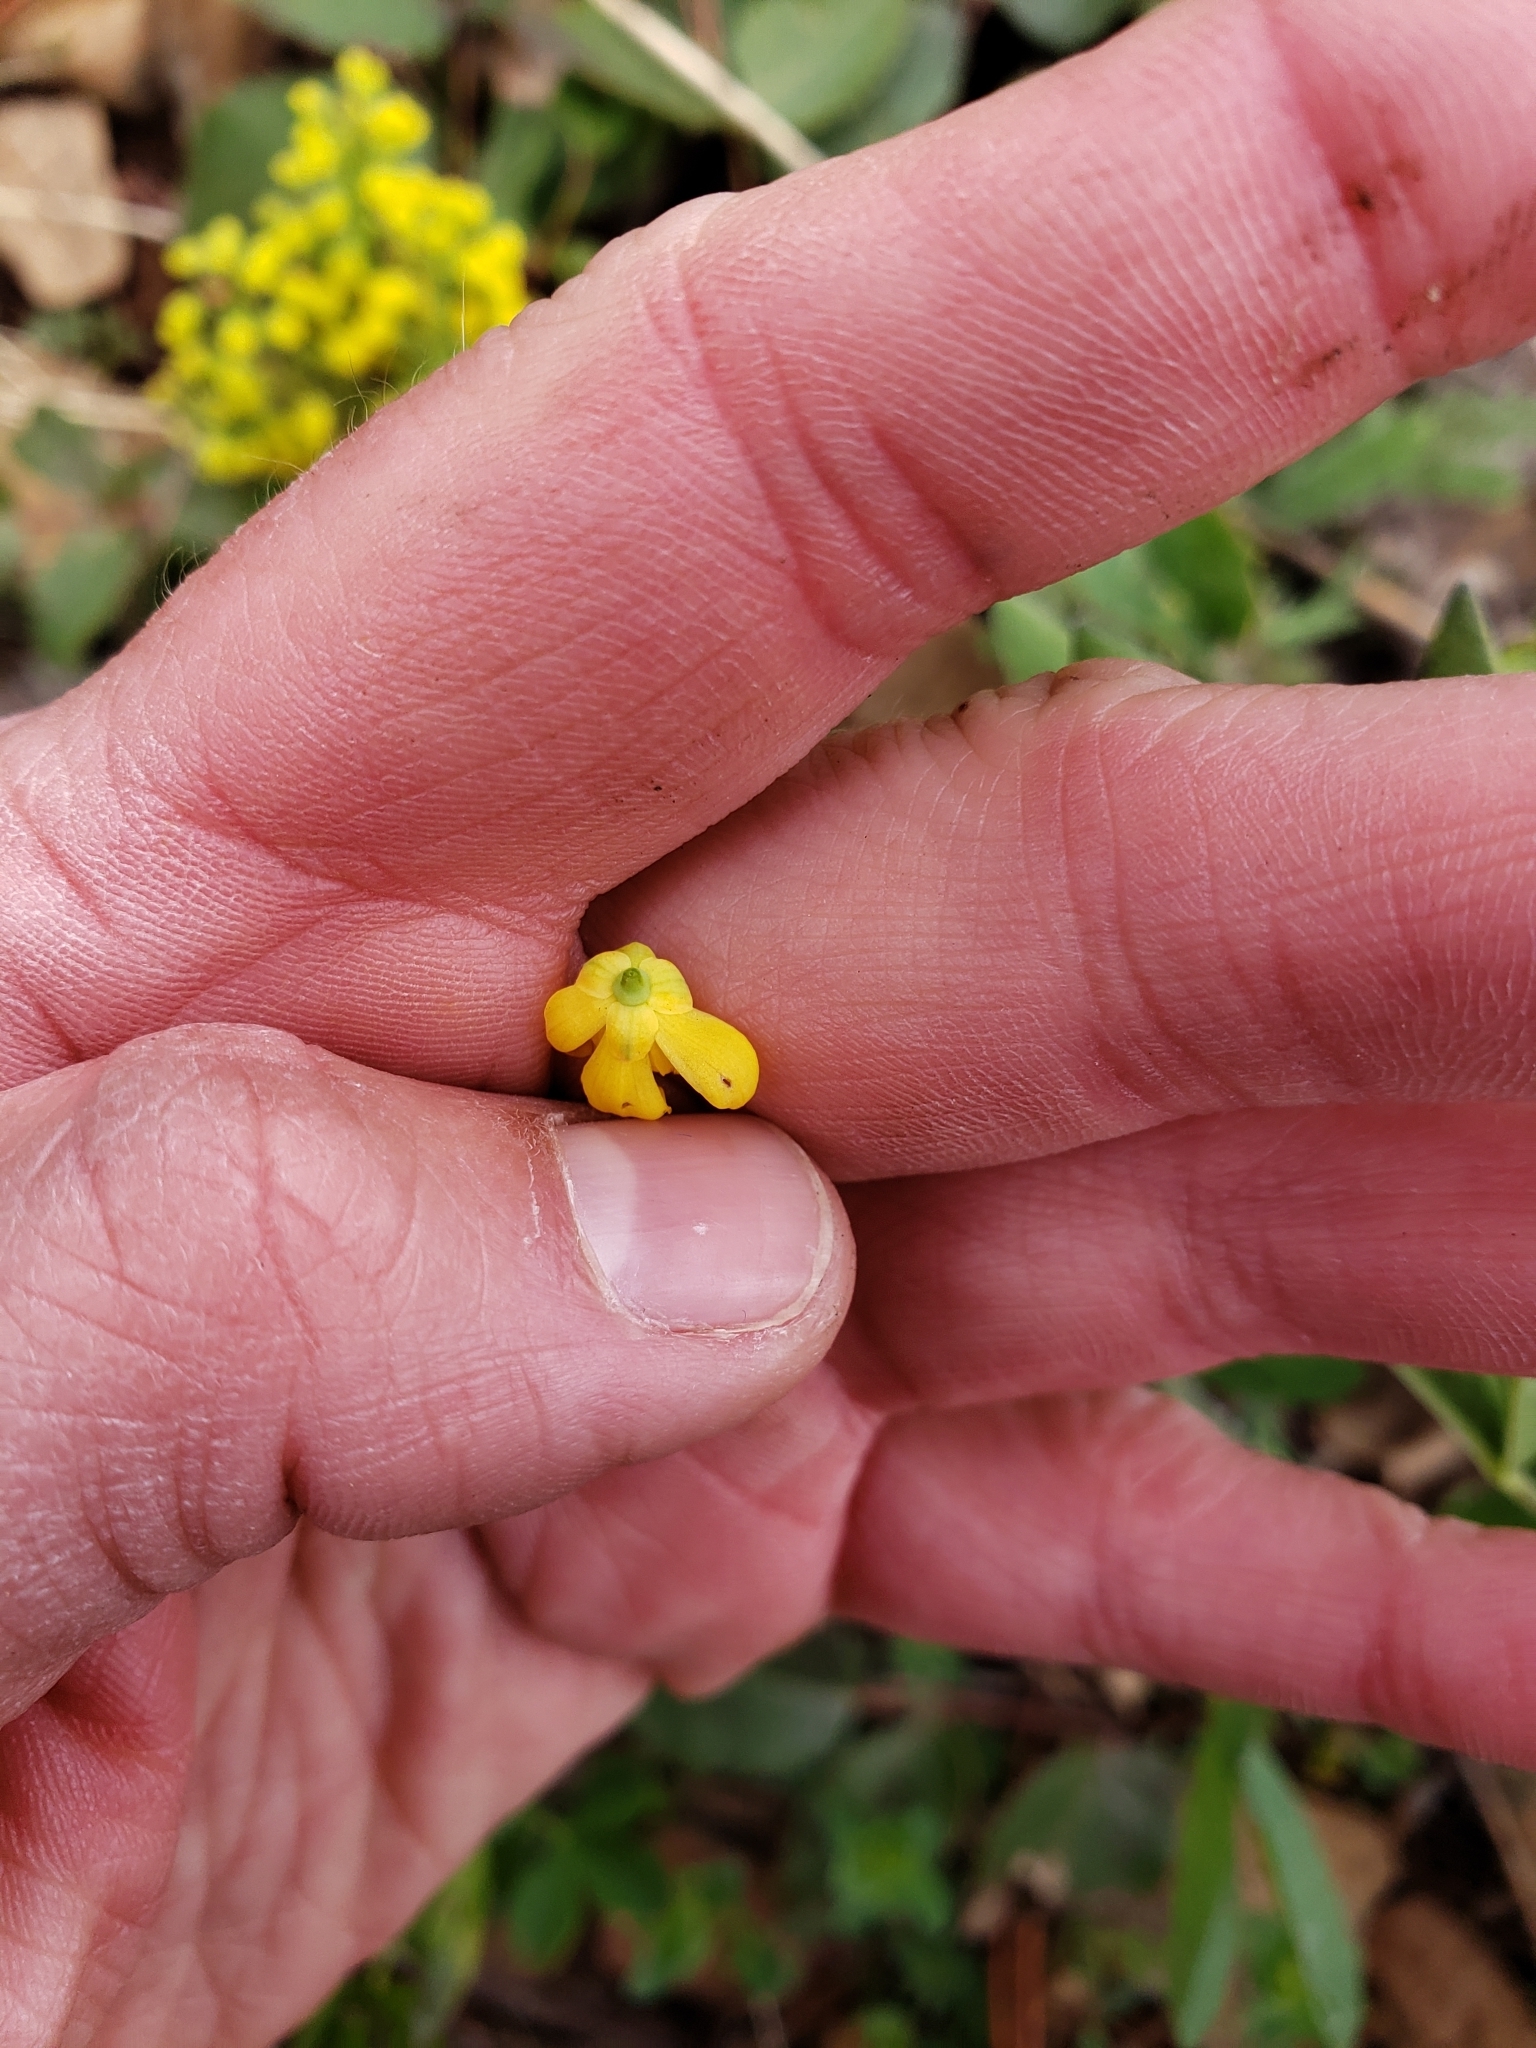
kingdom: Plantae
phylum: Tracheophyta
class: Magnoliopsida
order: Ranunculales
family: Berberidaceae
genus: Mahonia
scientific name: Mahonia repens
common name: Creeping oregon-grape
